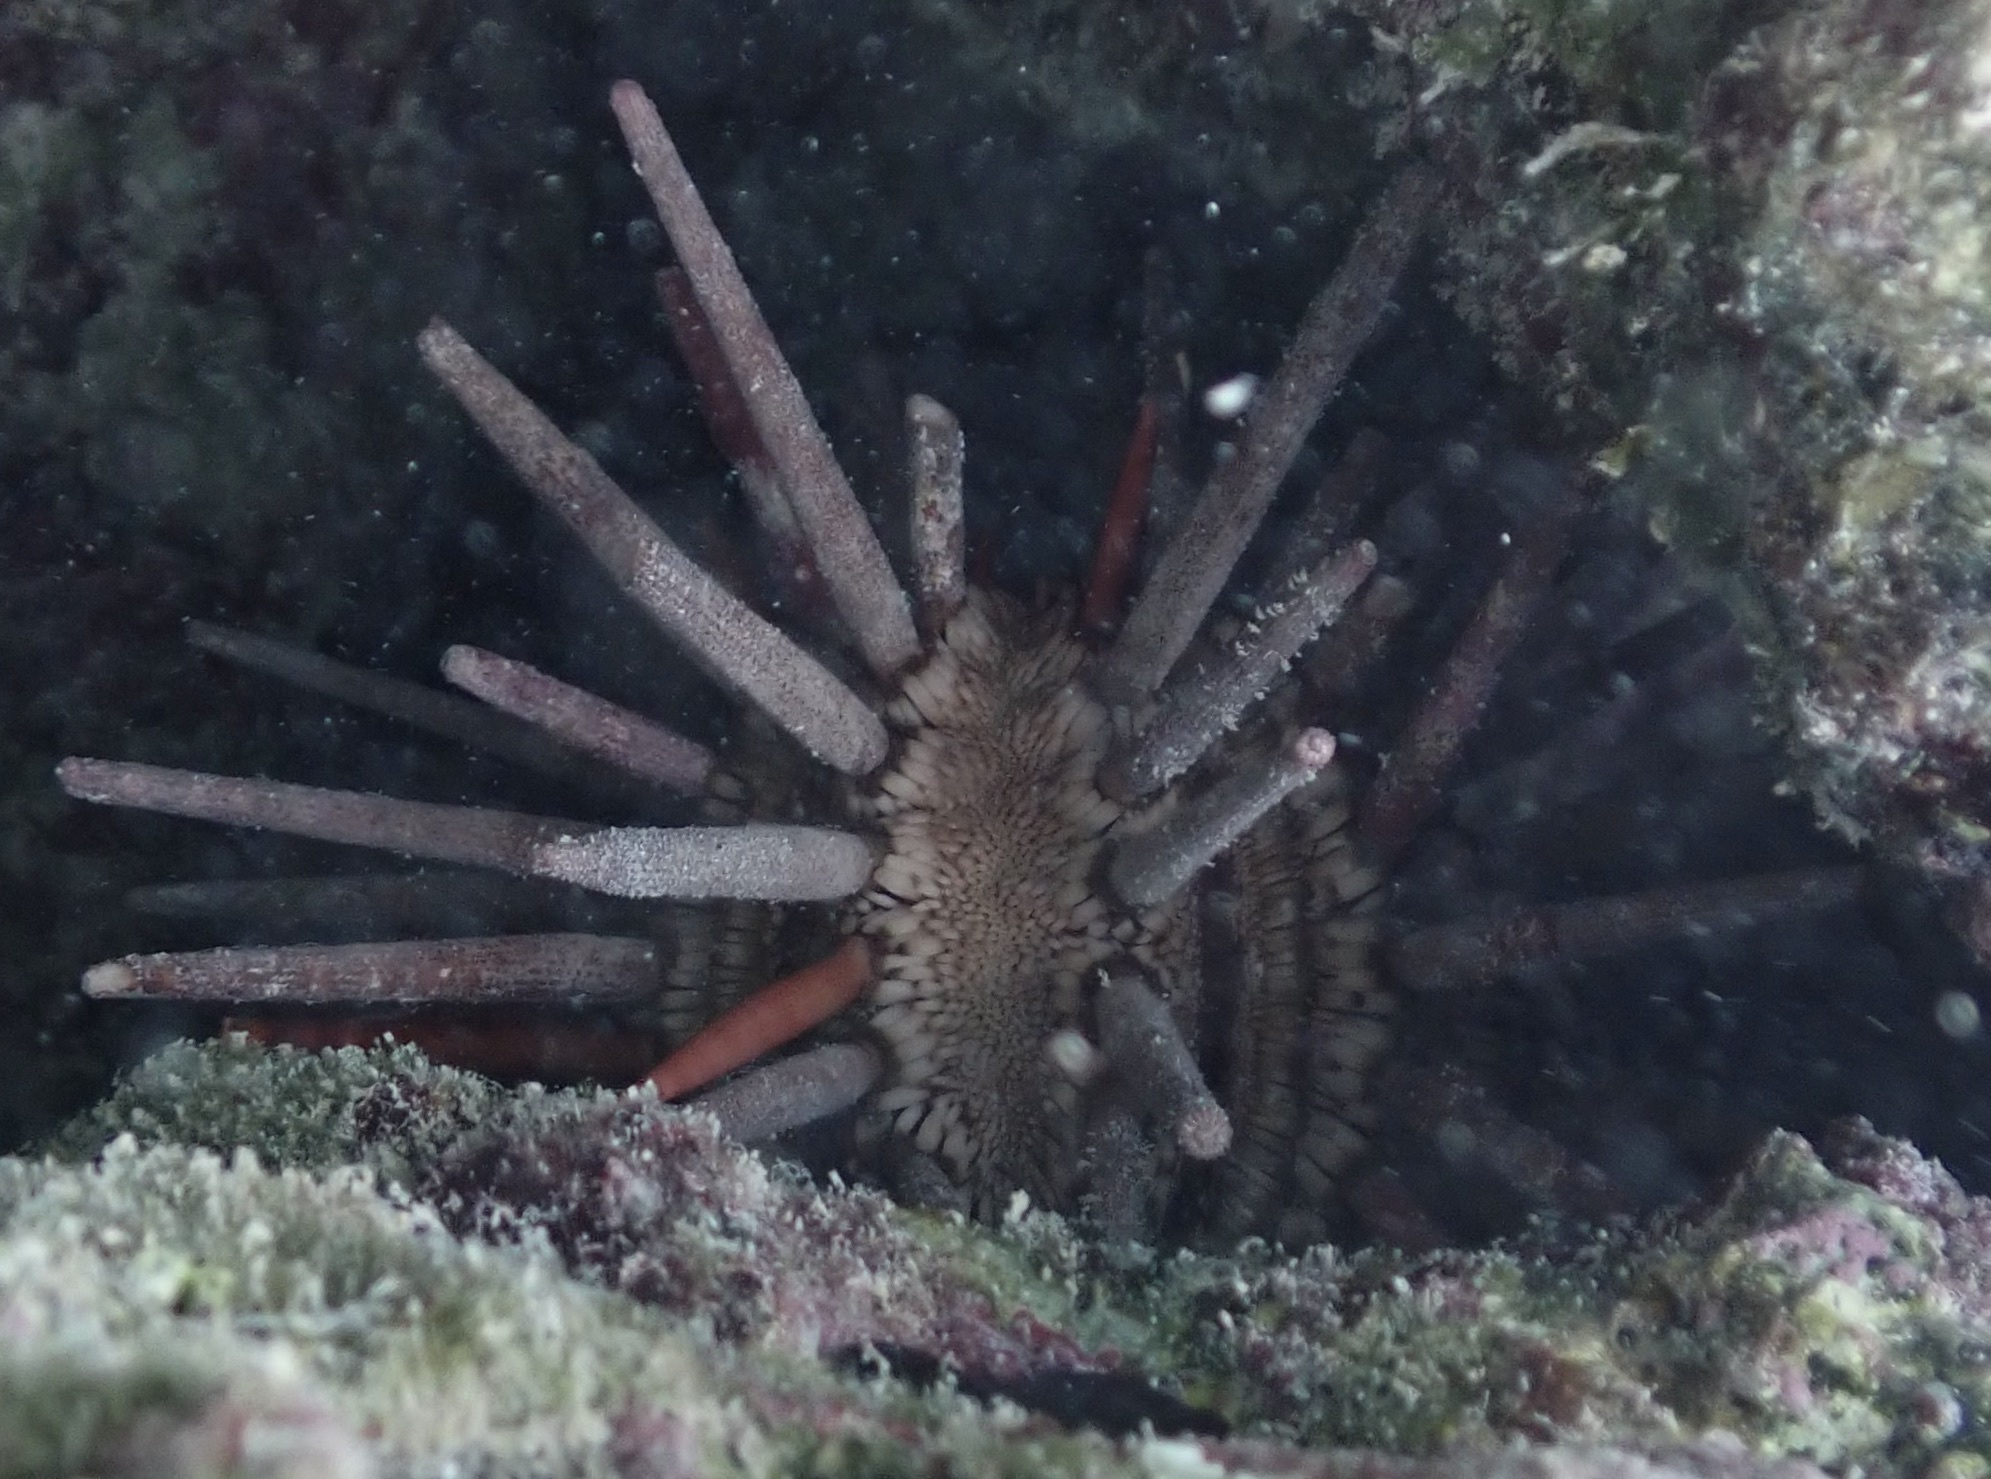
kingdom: Animalia
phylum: Echinodermata
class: Echinoidea
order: Cidaroida
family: Cidaridae
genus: Eucidaris
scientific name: Eucidaris tribuloides
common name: Slate pencil urchin
